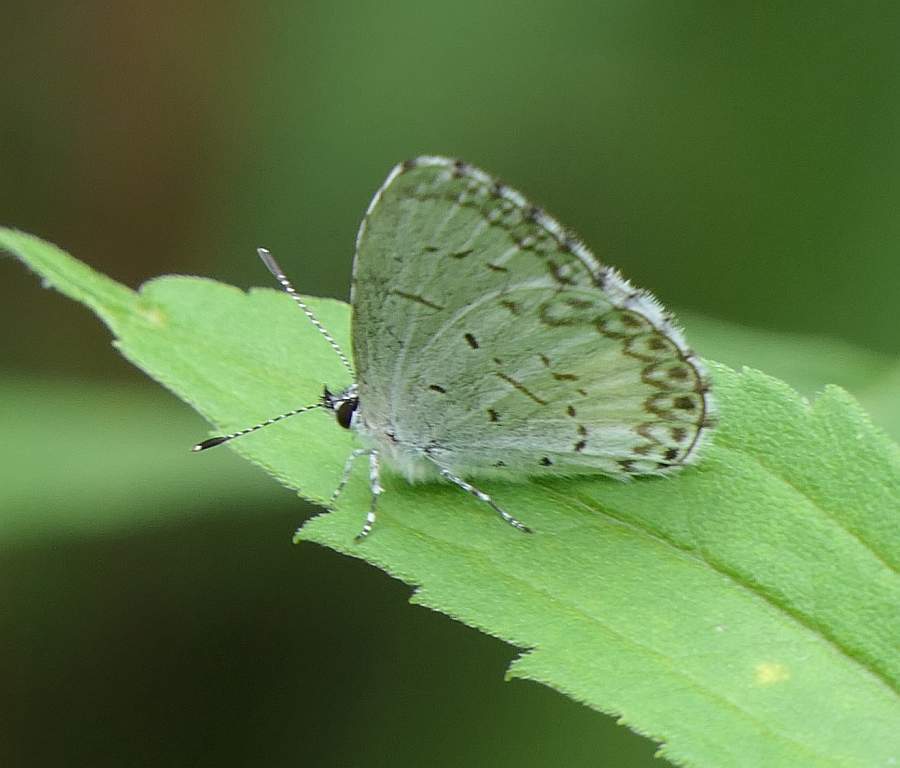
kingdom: Animalia
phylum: Arthropoda
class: Insecta
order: Lepidoptera
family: Lycaenidae
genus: Celastrina
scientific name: Celastrina lucia
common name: Lucia azure
